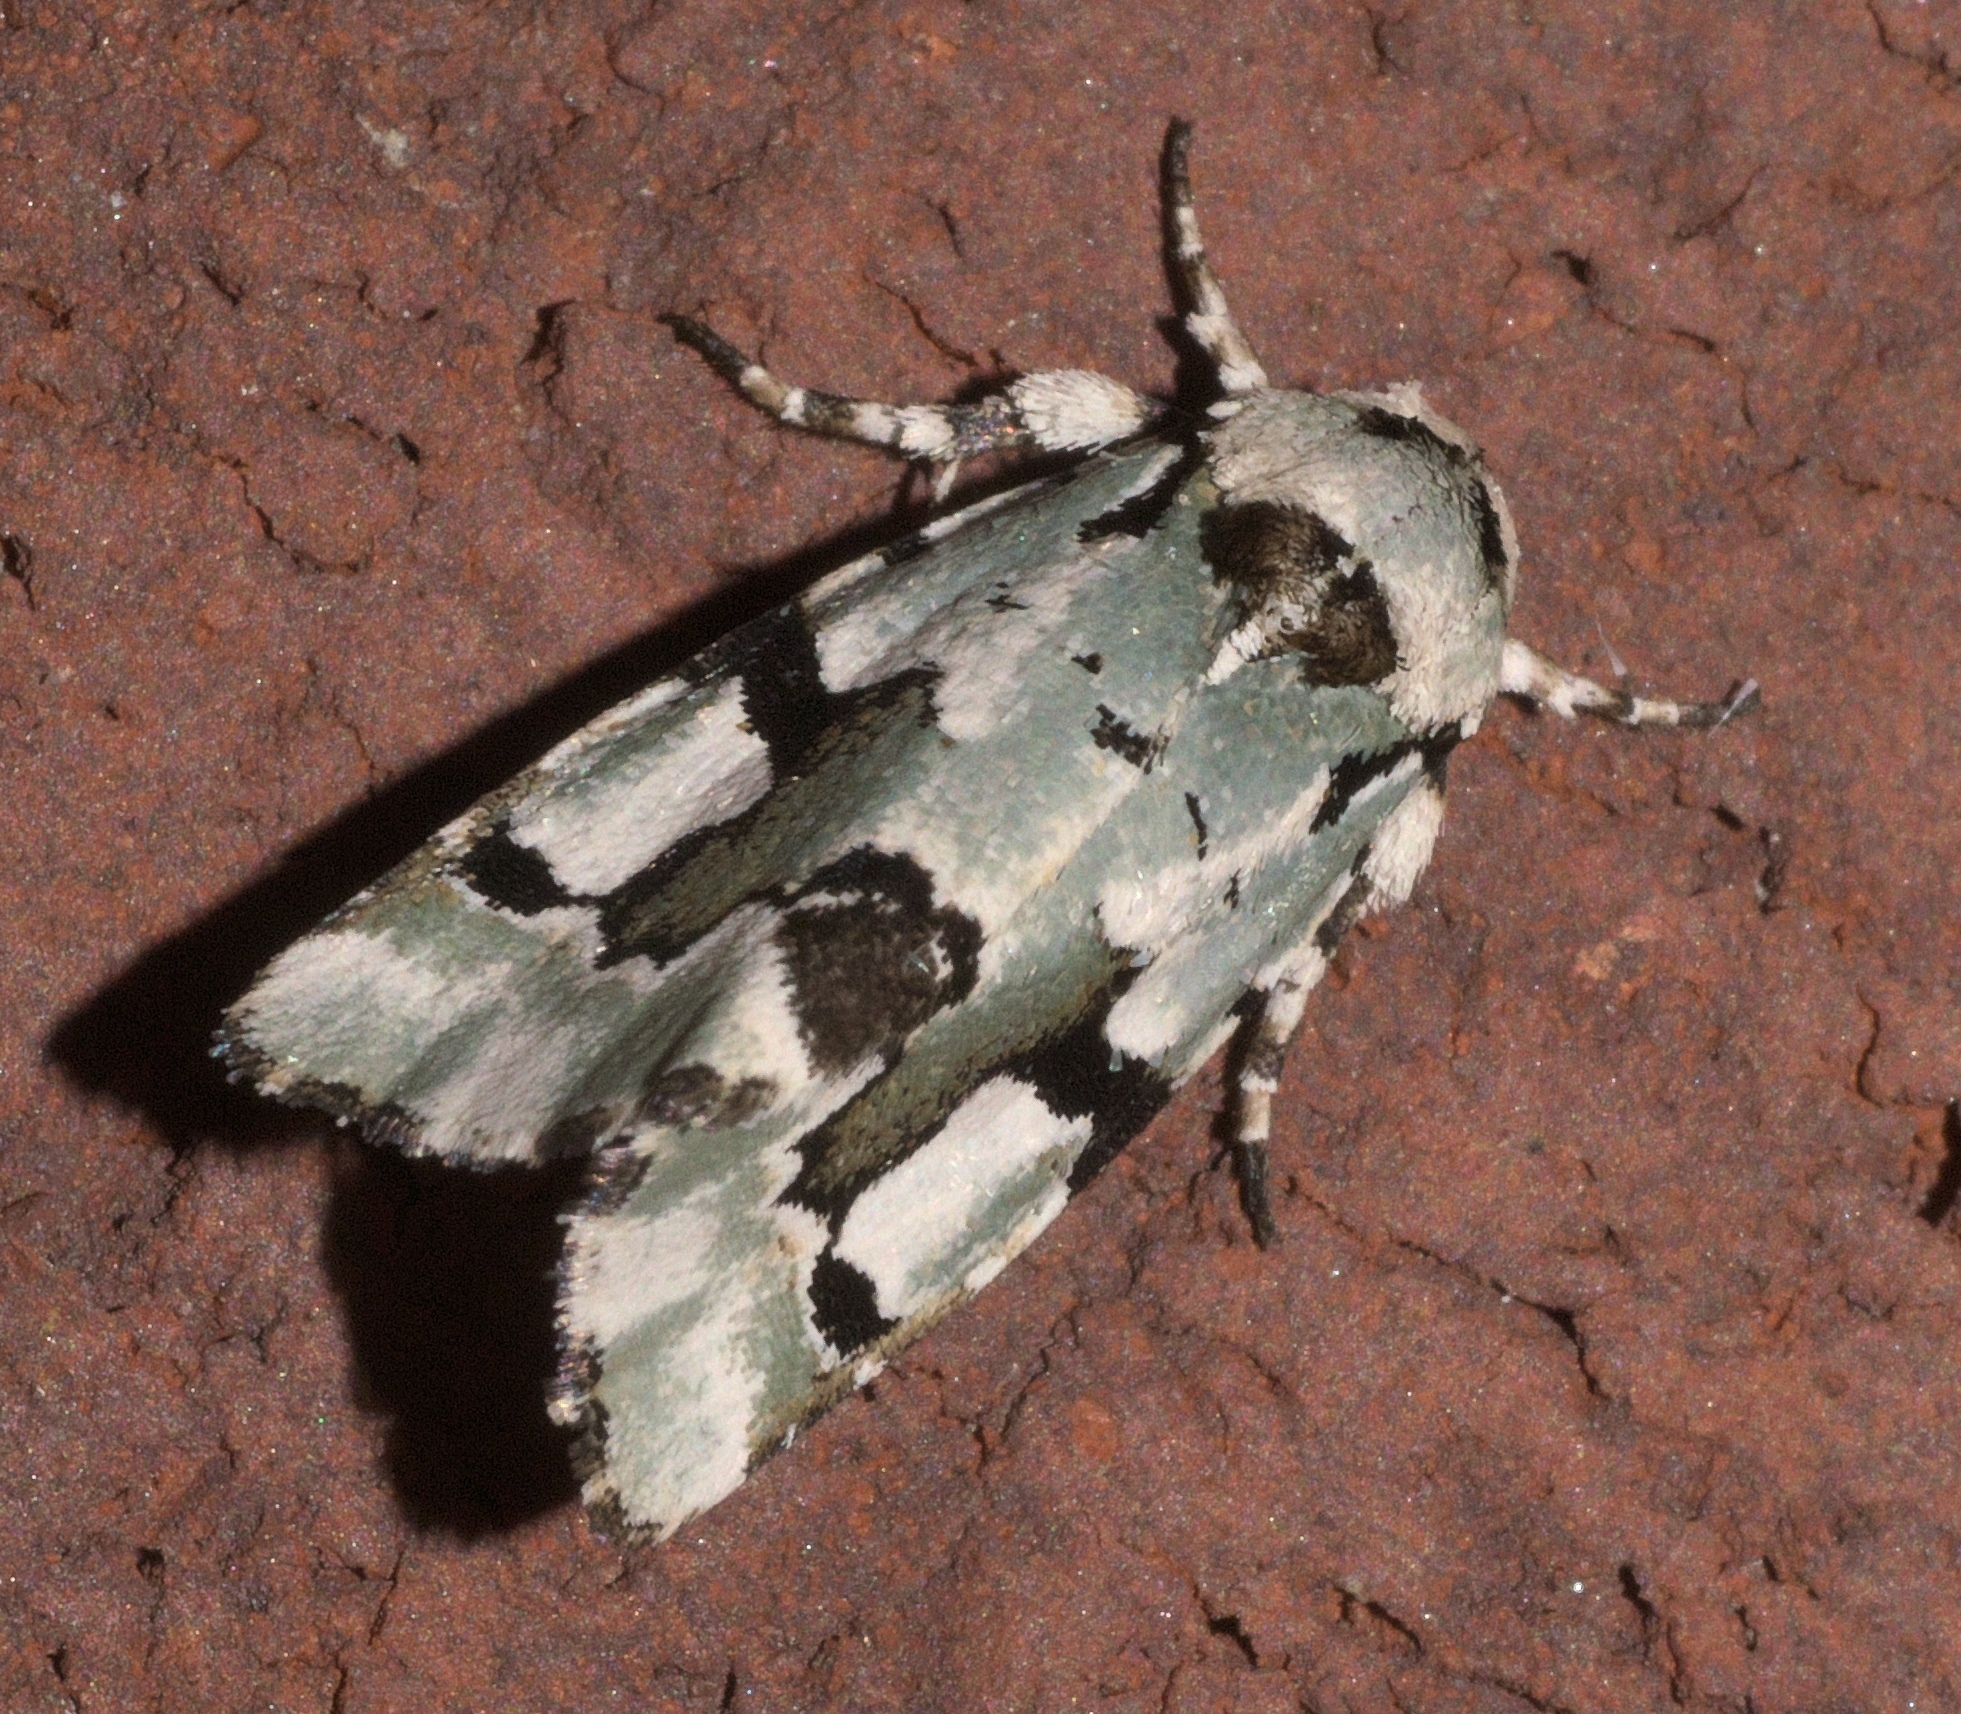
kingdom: Animalia
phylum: Arthropoda
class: Insecta
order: Lepidoptera
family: Noctuidae
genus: Emarginea
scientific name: Emarginea percara
